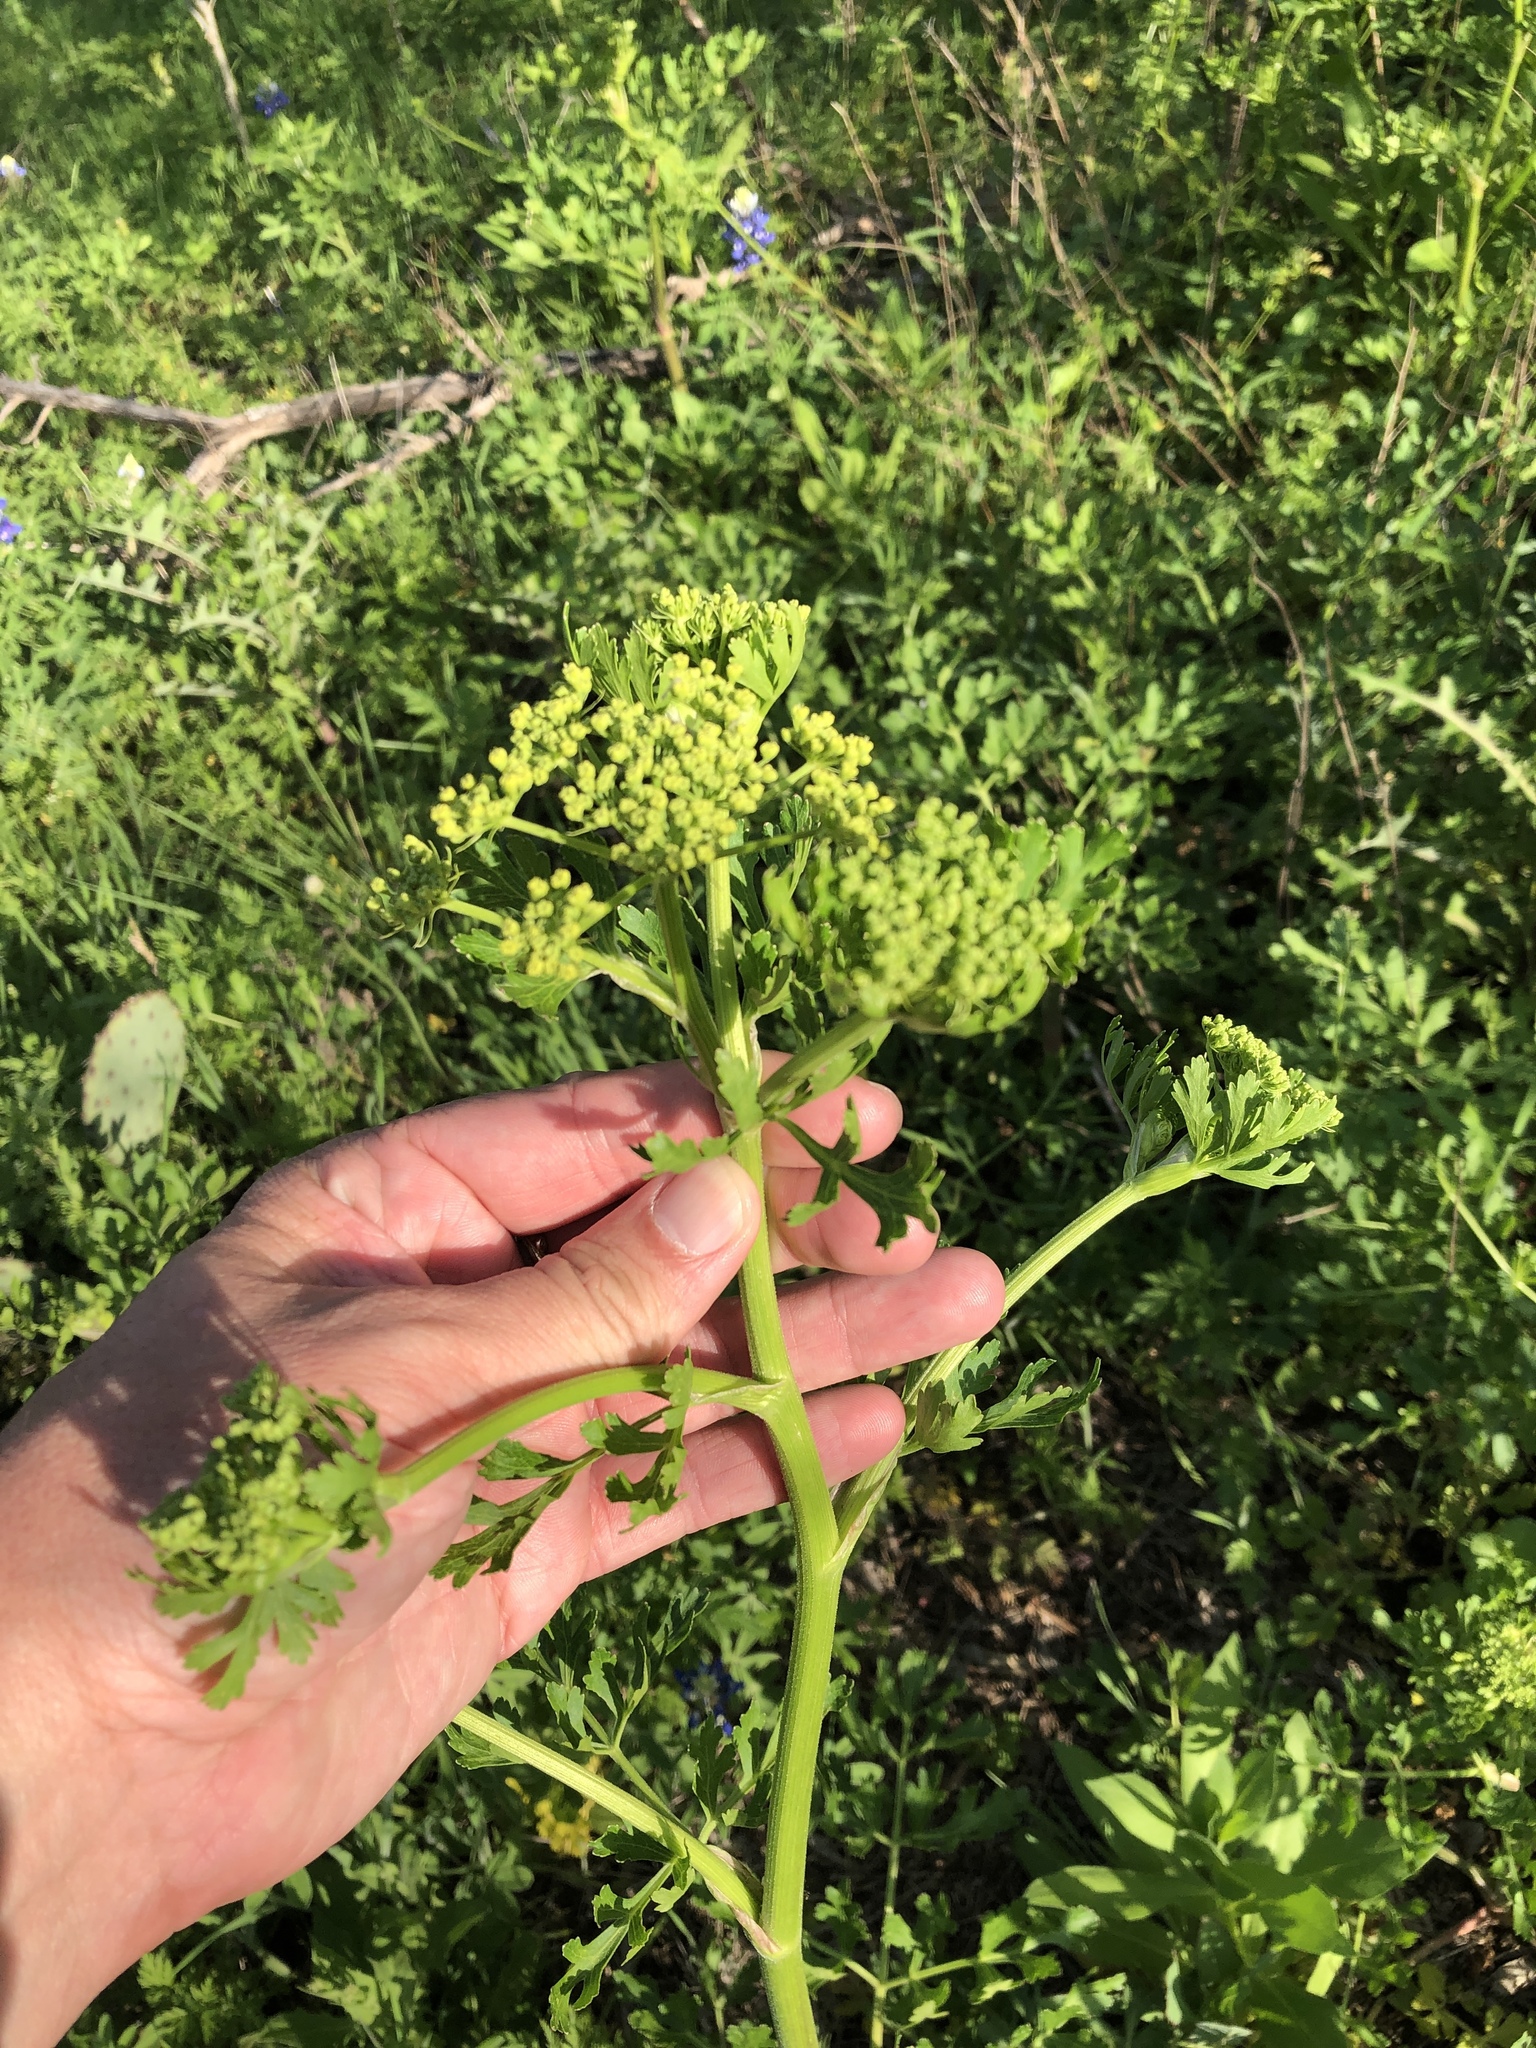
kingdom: Plantae
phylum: Tracheophyta
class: Magnoliopsida
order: Apiales
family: Apiaceae
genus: Polytaenia
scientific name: Polytaenia texana
